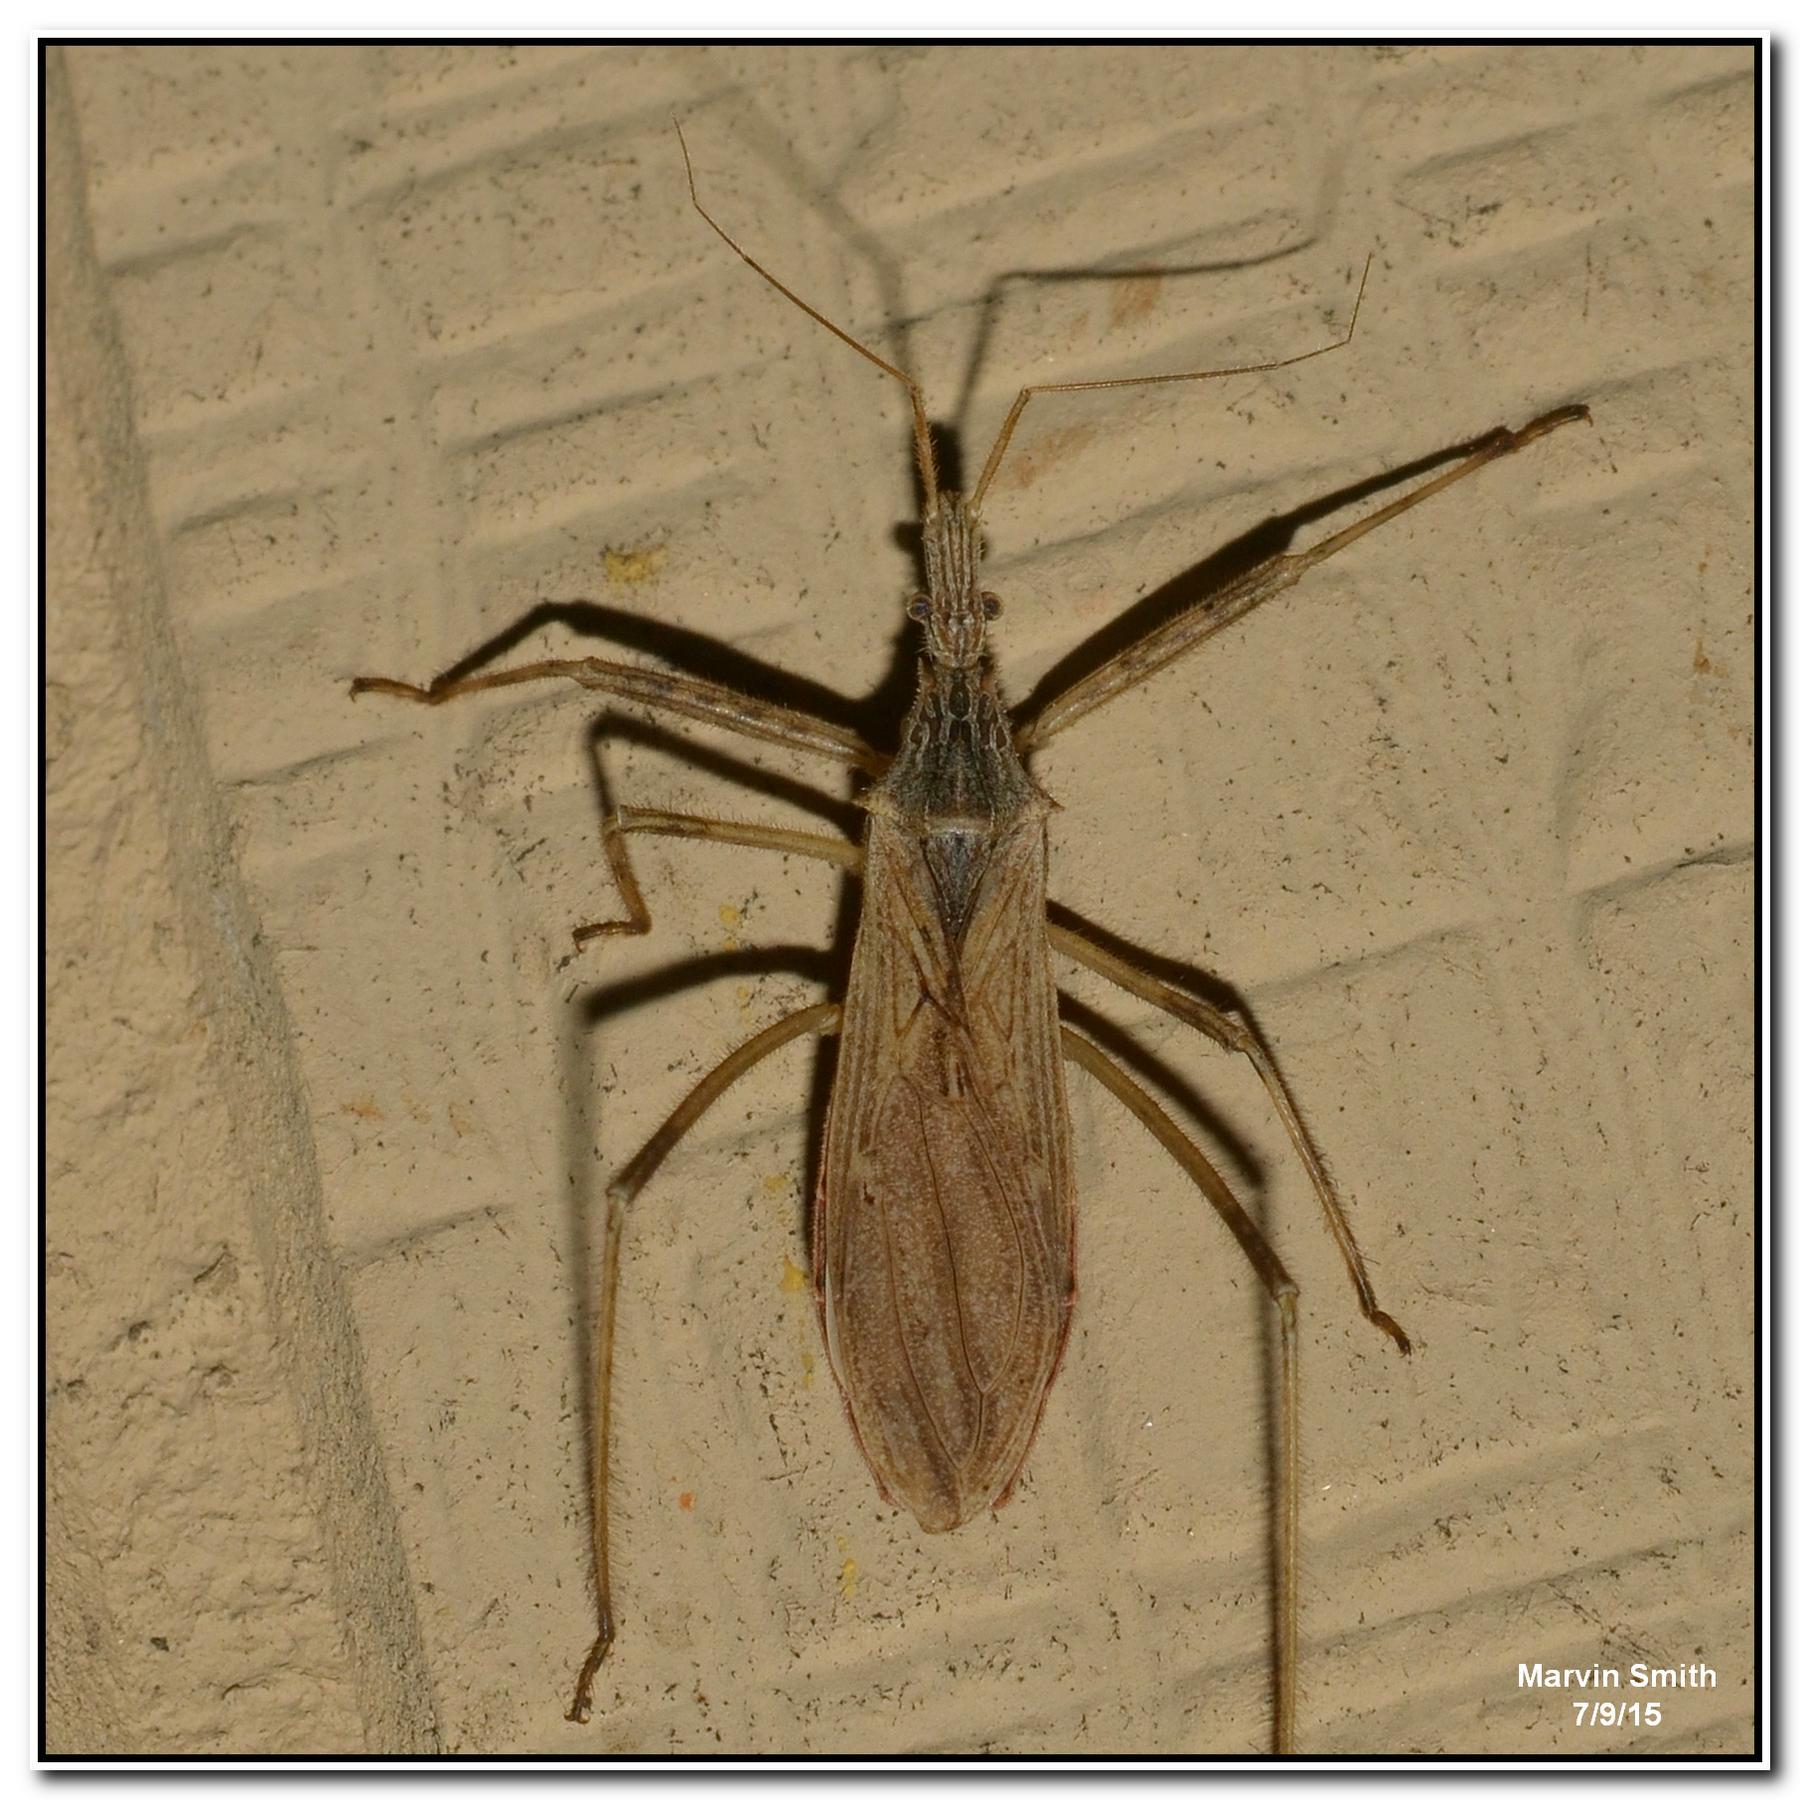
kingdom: Animalia
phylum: Arthropoda
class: Insecta
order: Hemiptera
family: Reduviidae
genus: Stenopoda
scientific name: Stenopoda spinulosa
